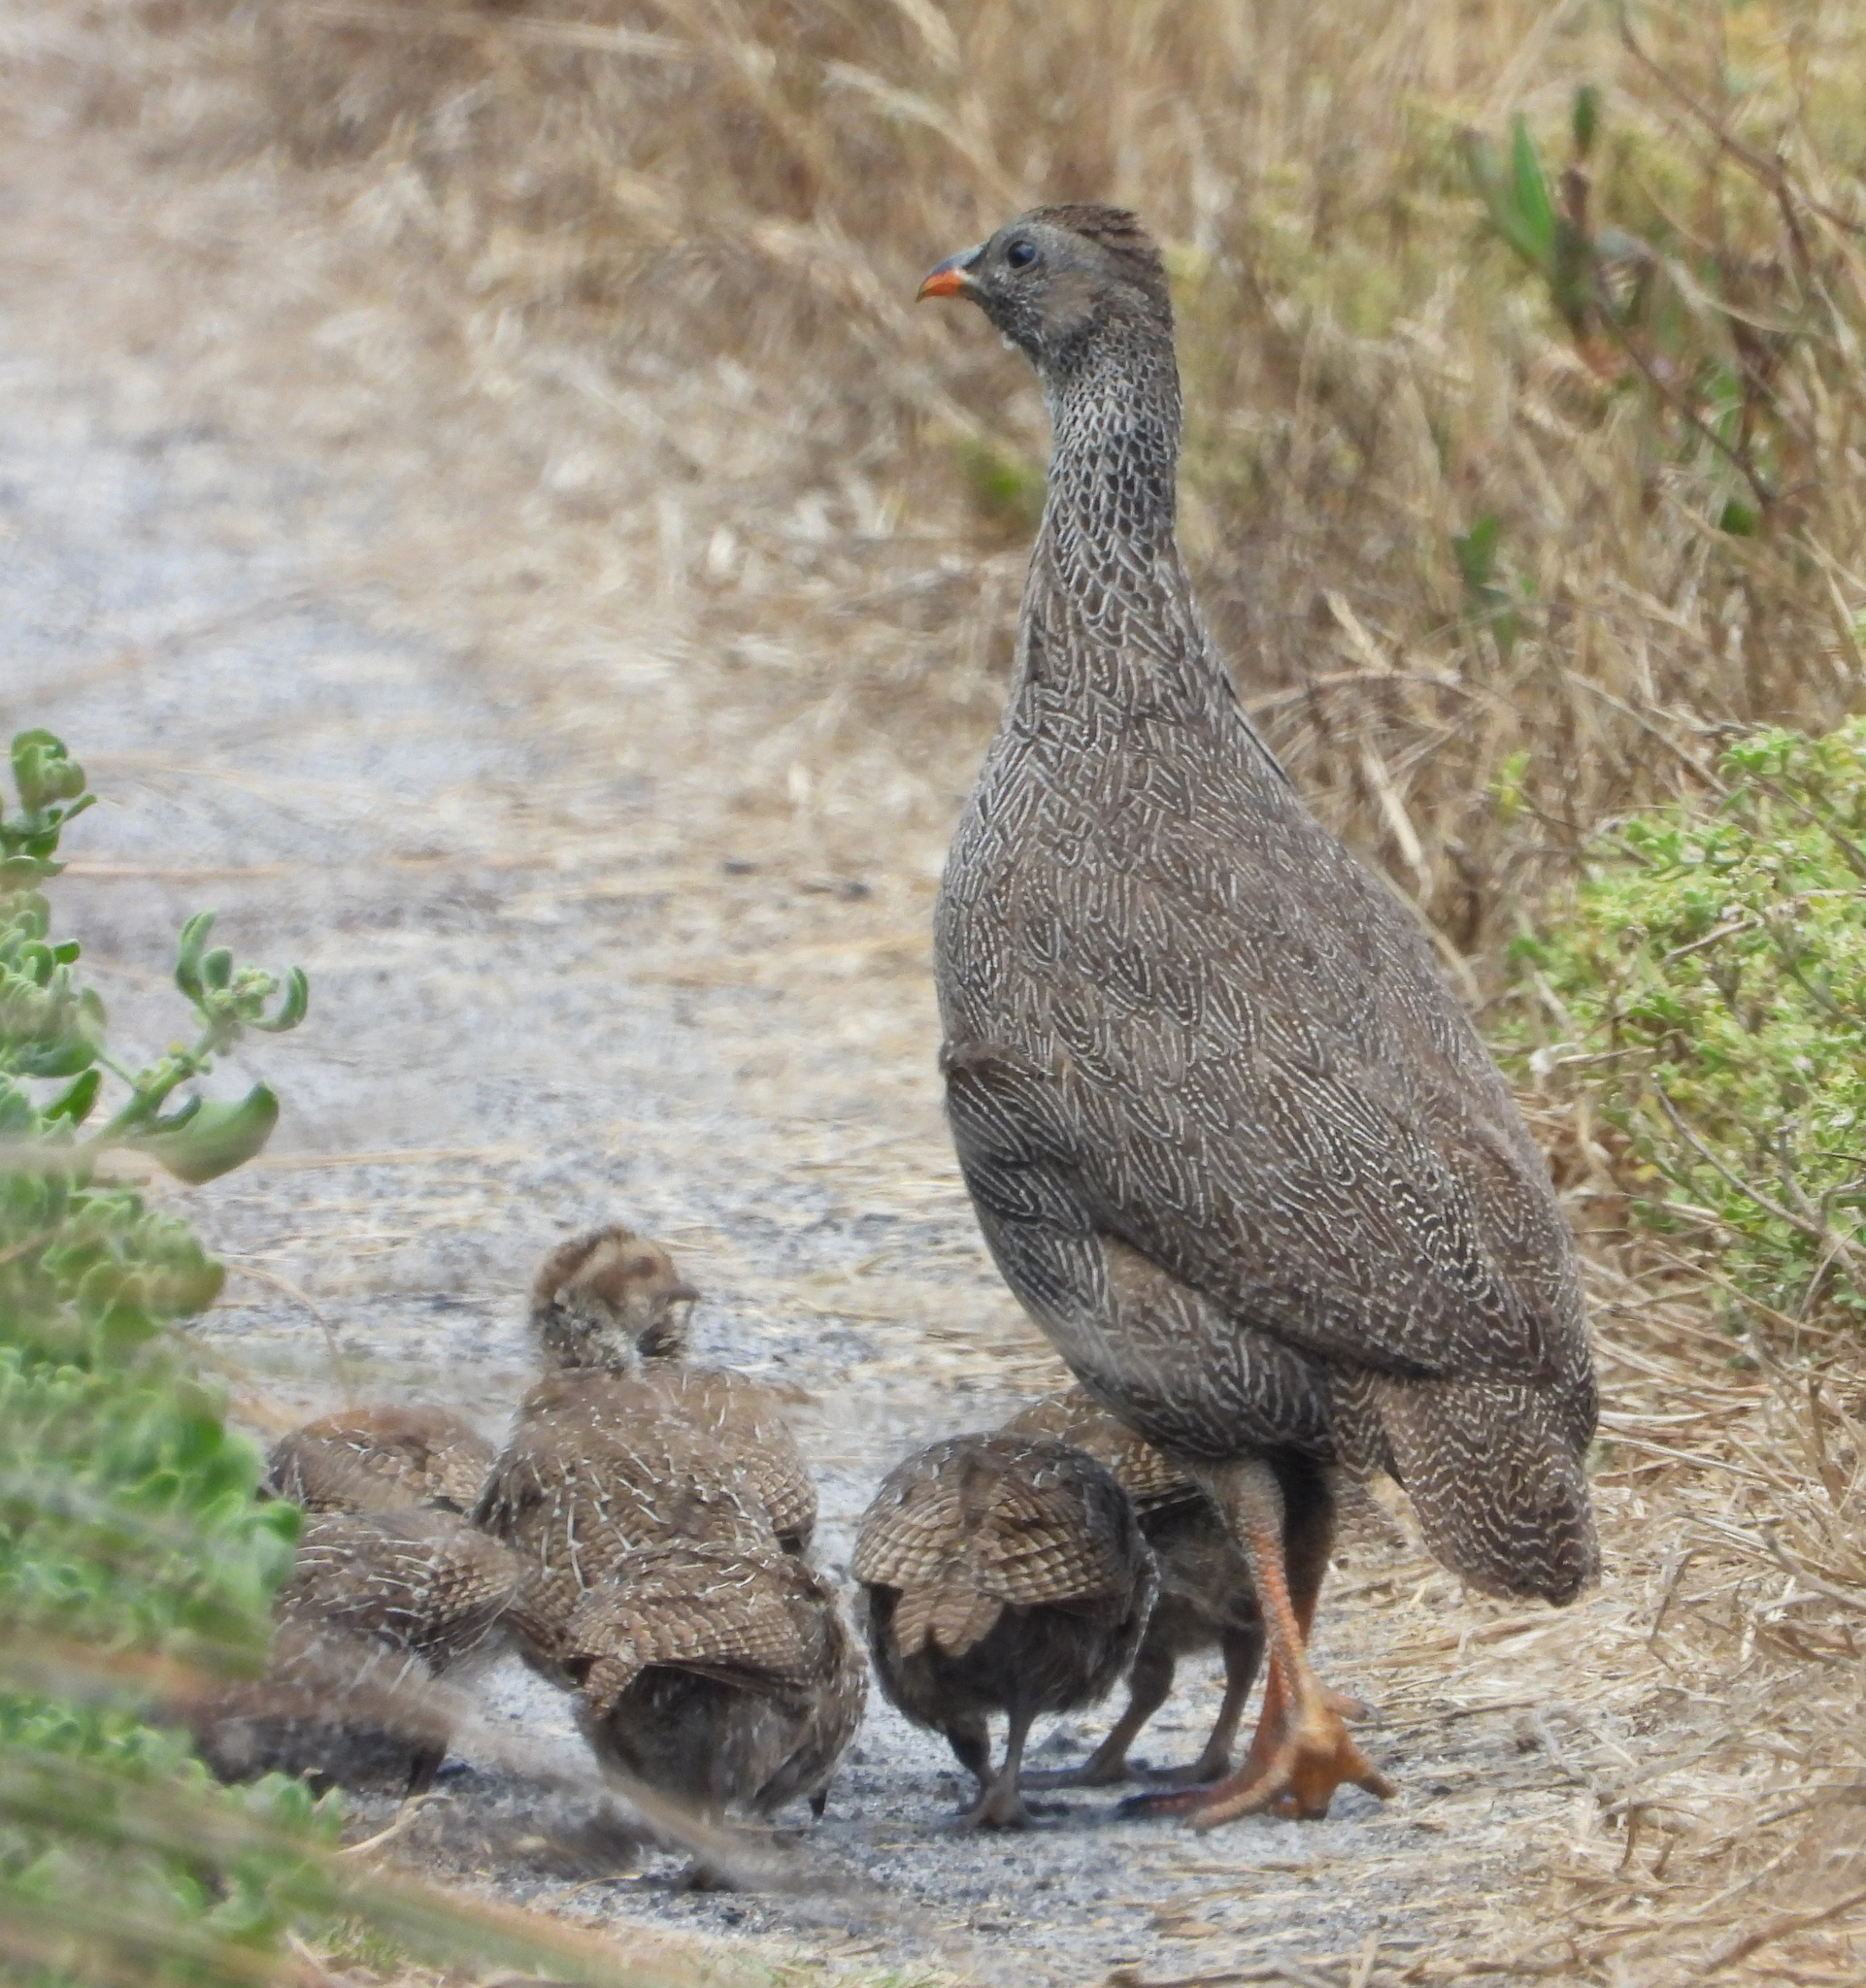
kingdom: Animalia
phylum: Chordata
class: Aves
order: Galliformes
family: Phasianidae
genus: Pternistis
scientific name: Pternistis capensis
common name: Cape spurfowl
